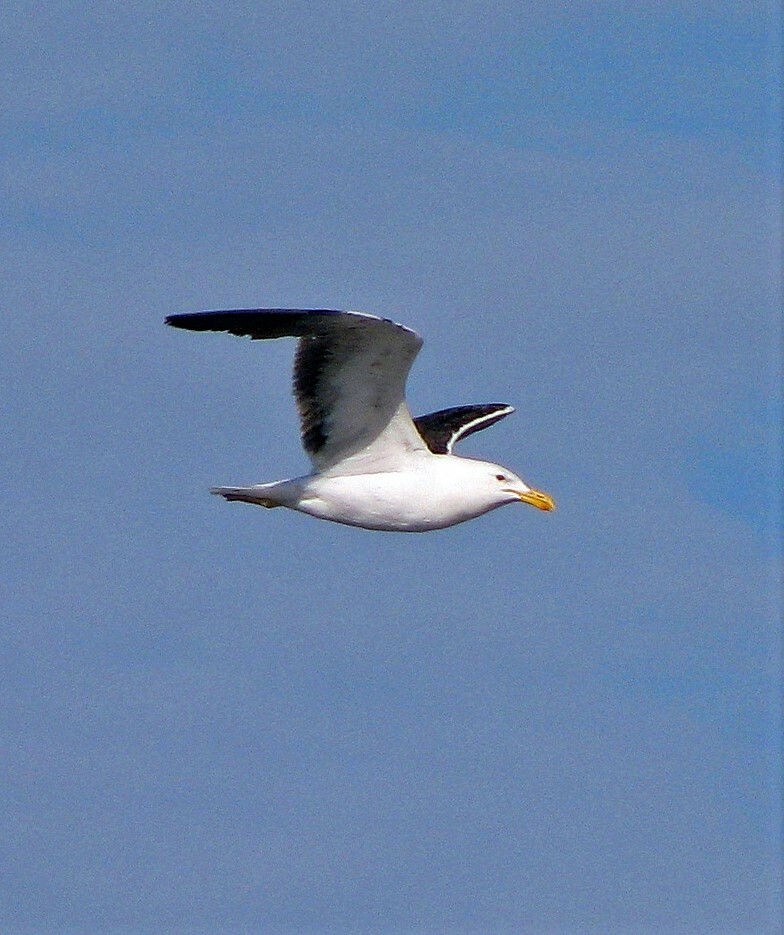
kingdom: Animalia
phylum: Chordata
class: Aves
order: Charadriiformes
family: Laridae
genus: Larus
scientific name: Larus dominicanus
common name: Kelp gull
